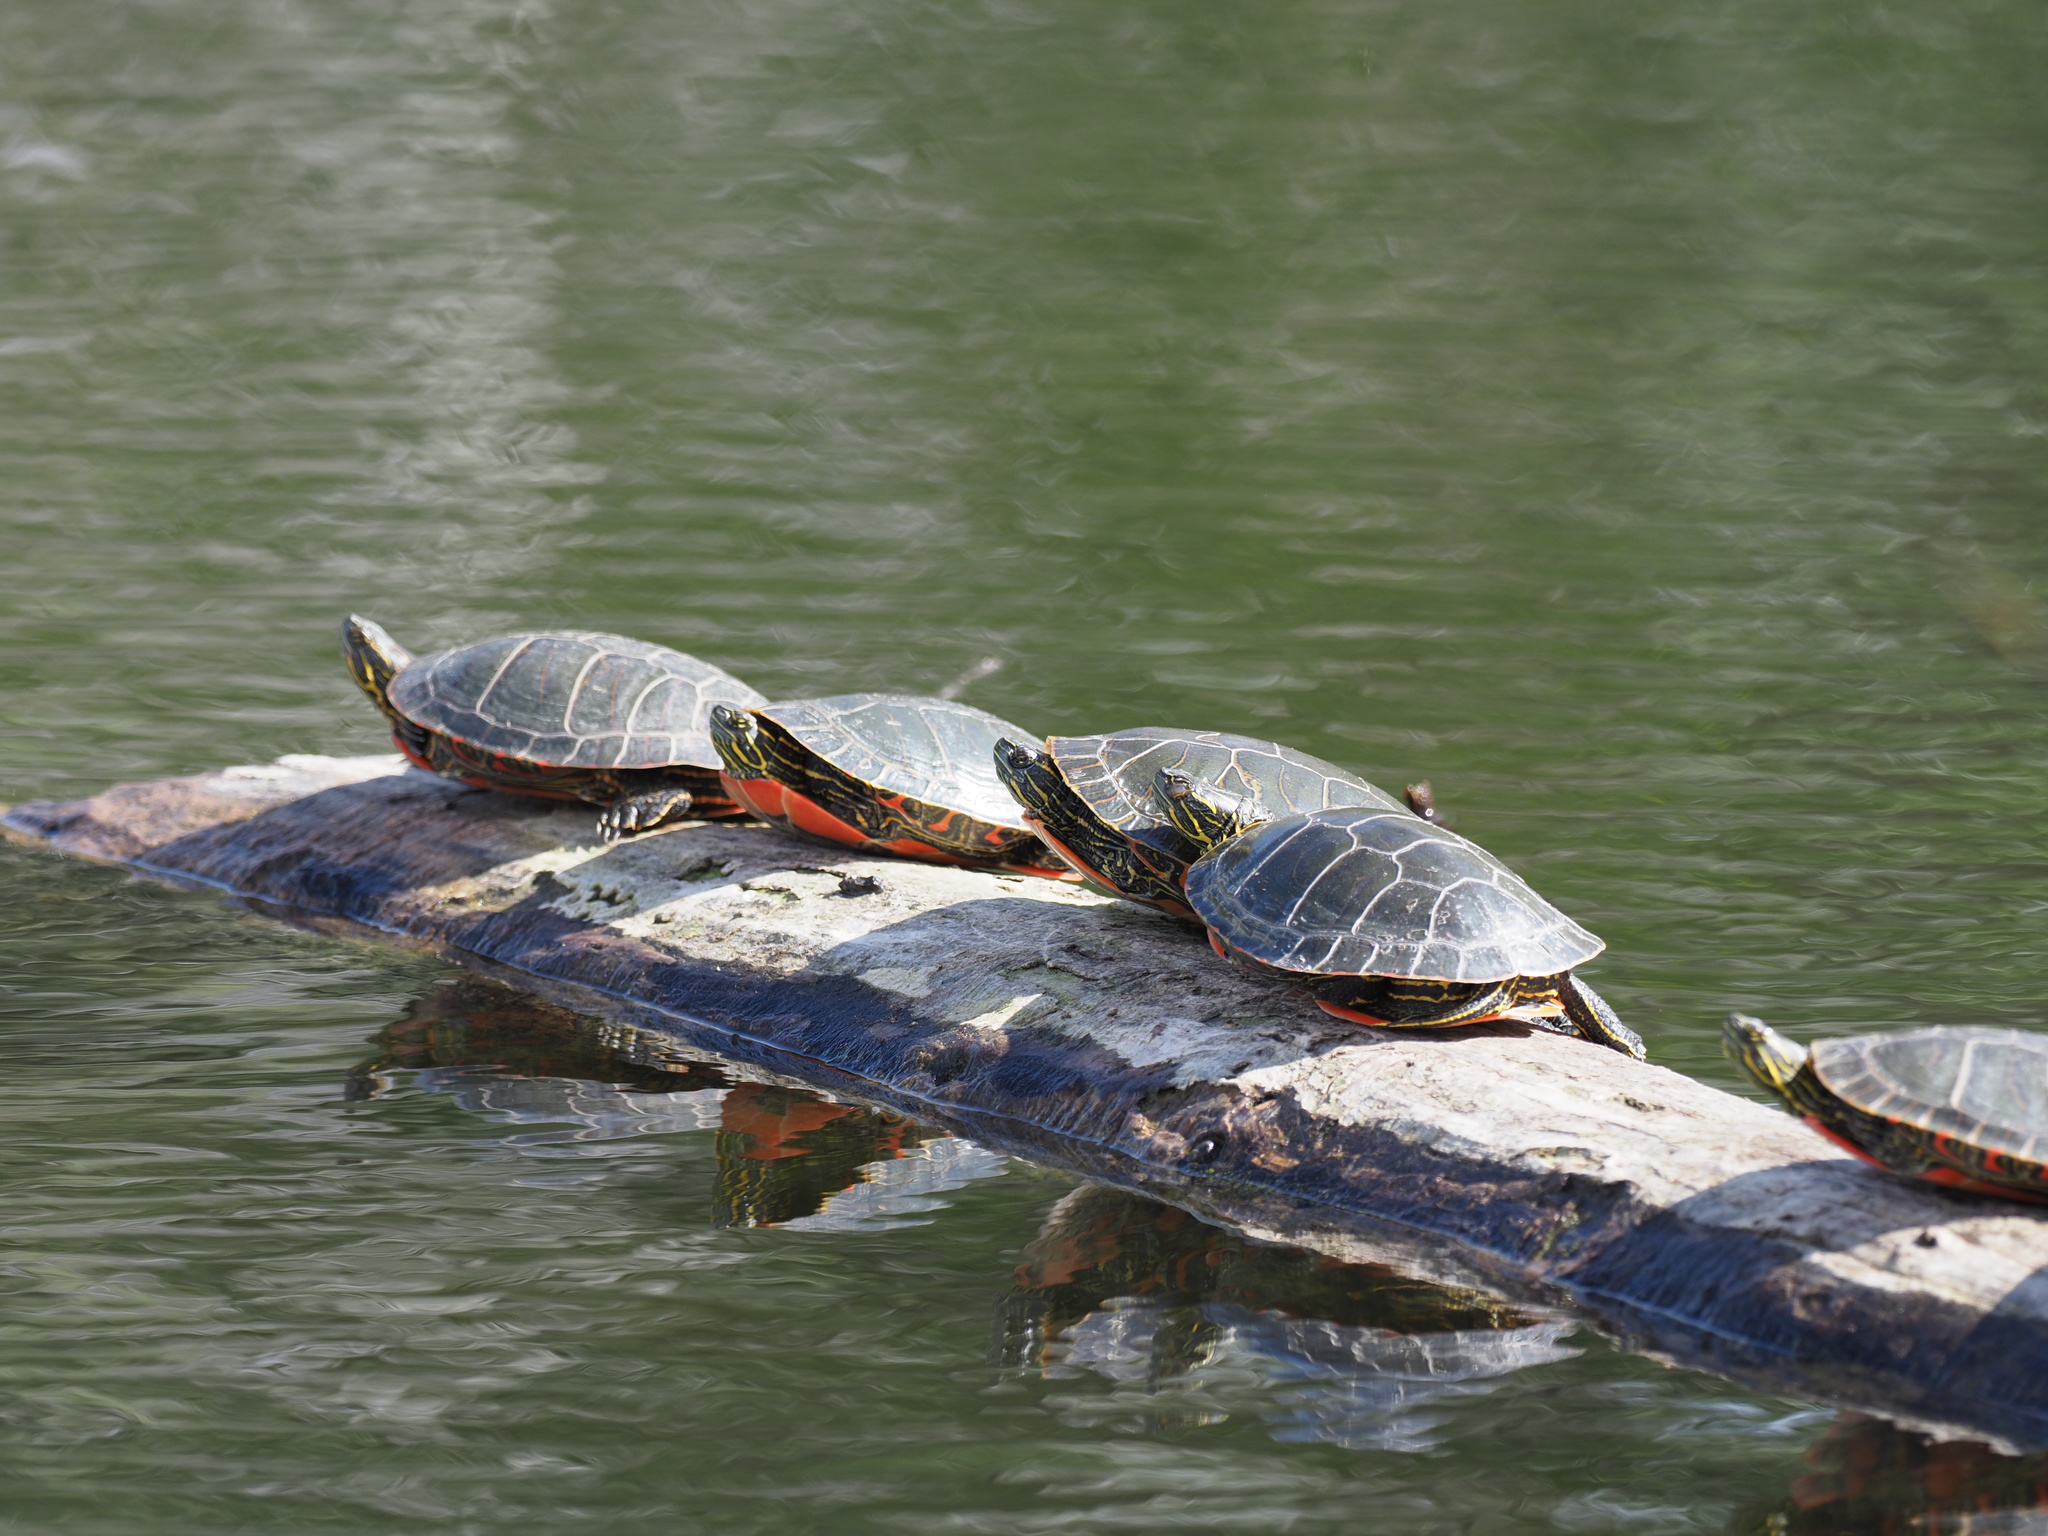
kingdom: Animalia
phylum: Chordata
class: Testudines
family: Emydidae
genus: Chrysemys
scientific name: Chrysemys picta
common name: Painted turtle
